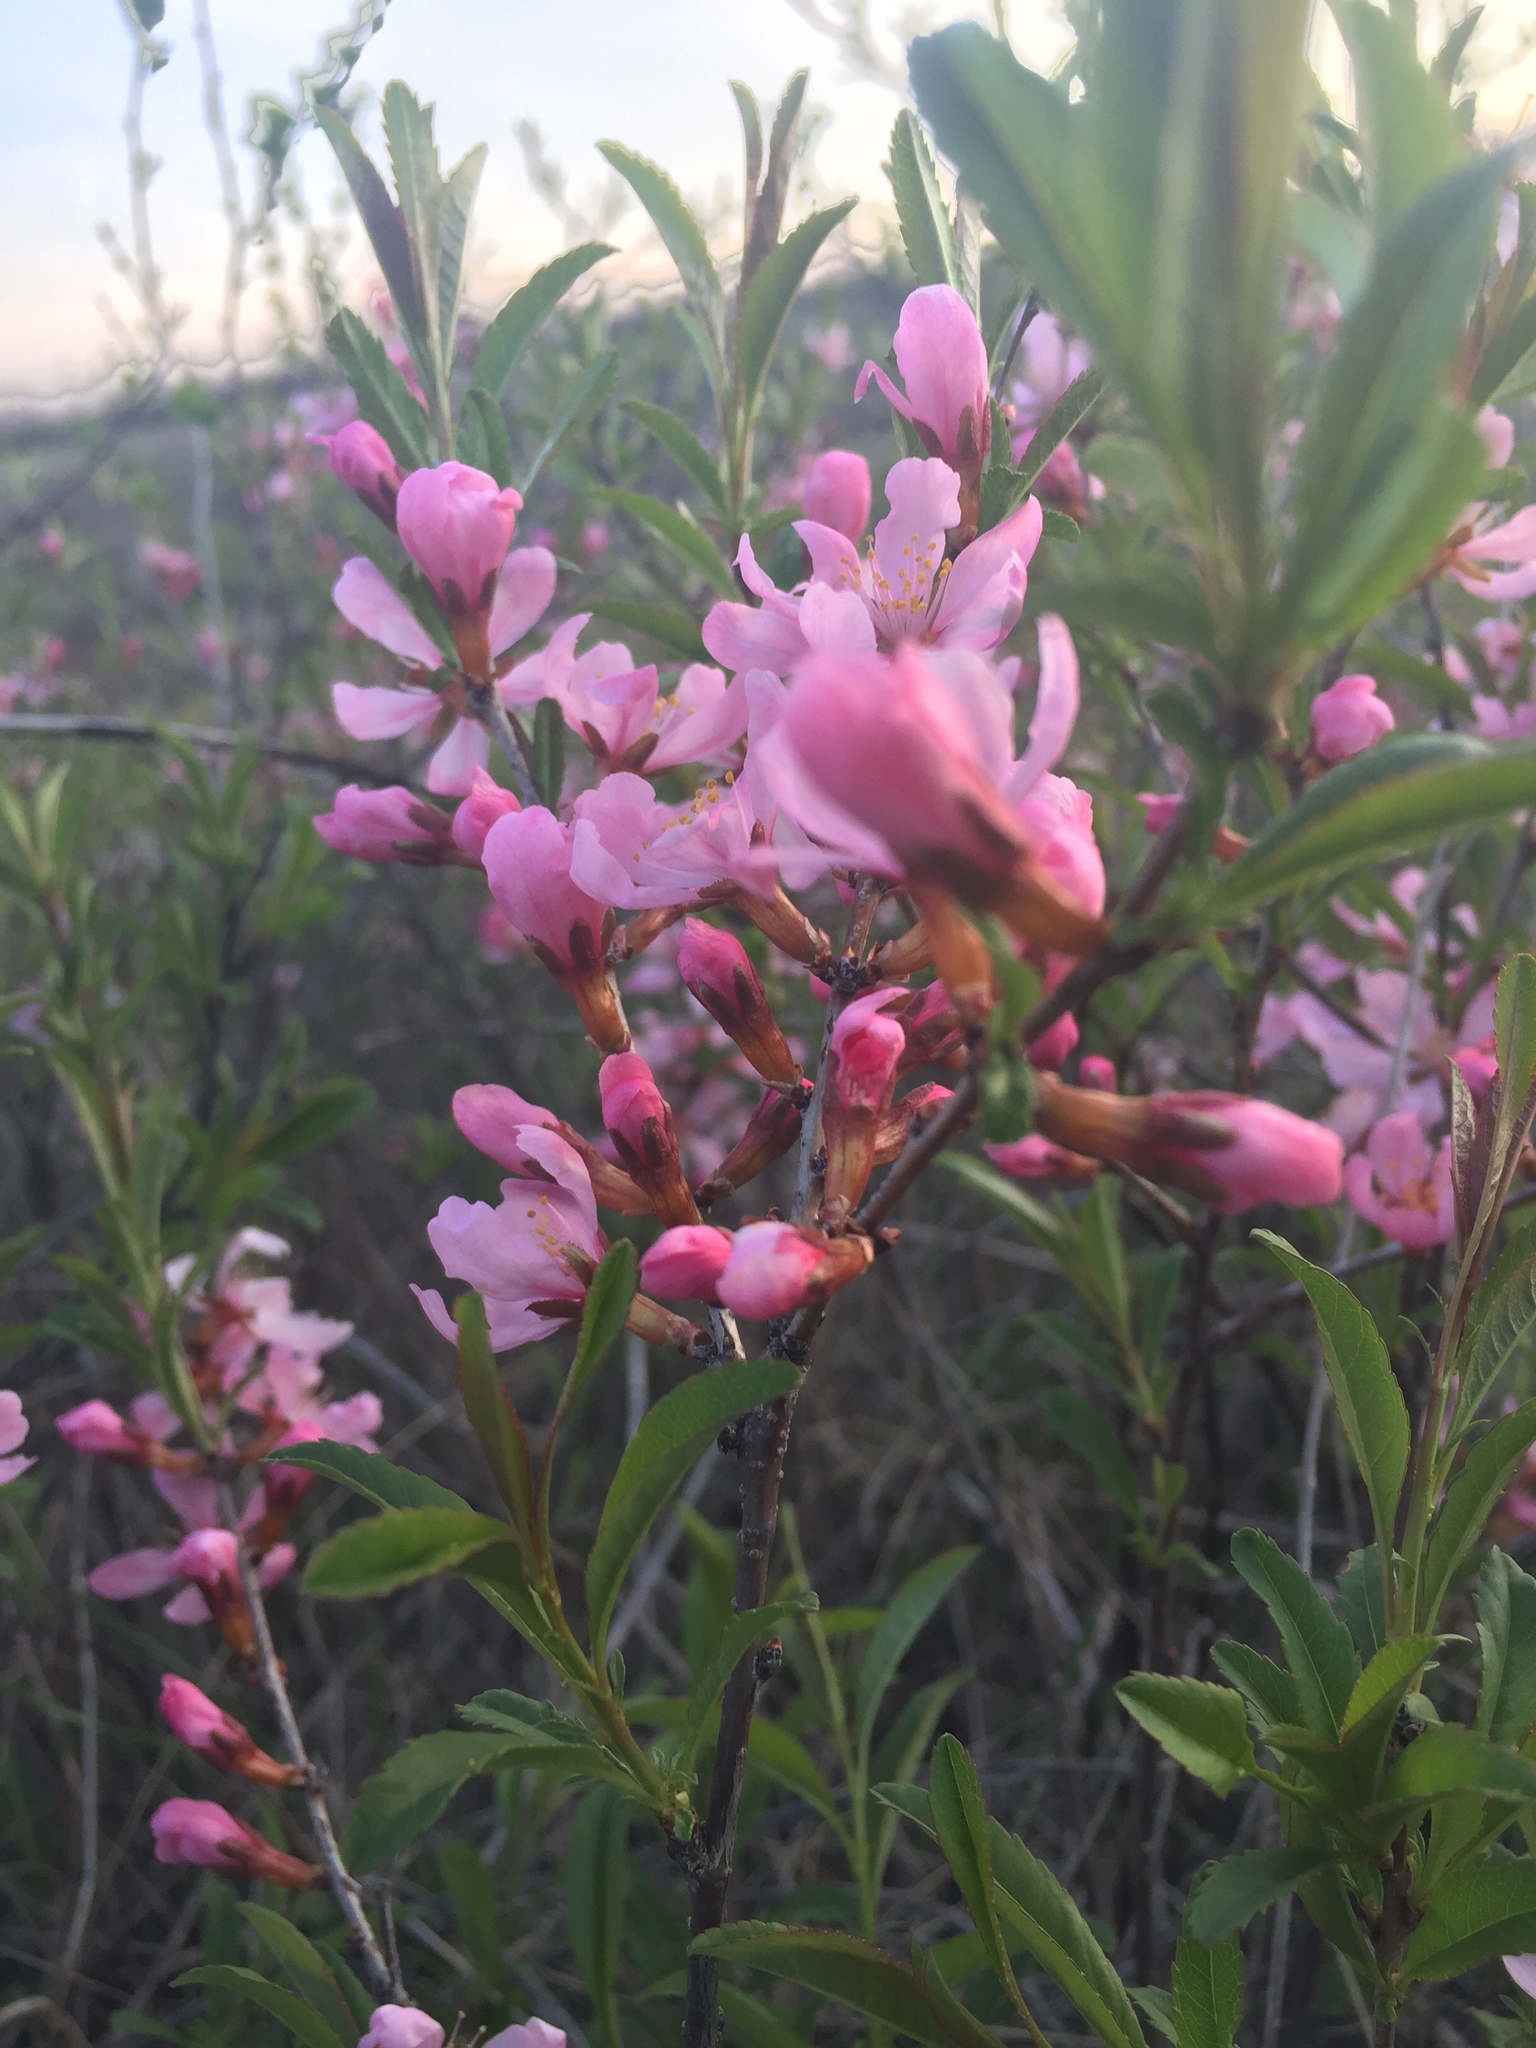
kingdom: Plantae
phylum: Tracheophyta
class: Magnoliopsida
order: Rosales
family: Rosaceae
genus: Prunus
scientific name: Prunus tenella
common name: Dwarf russian almond
